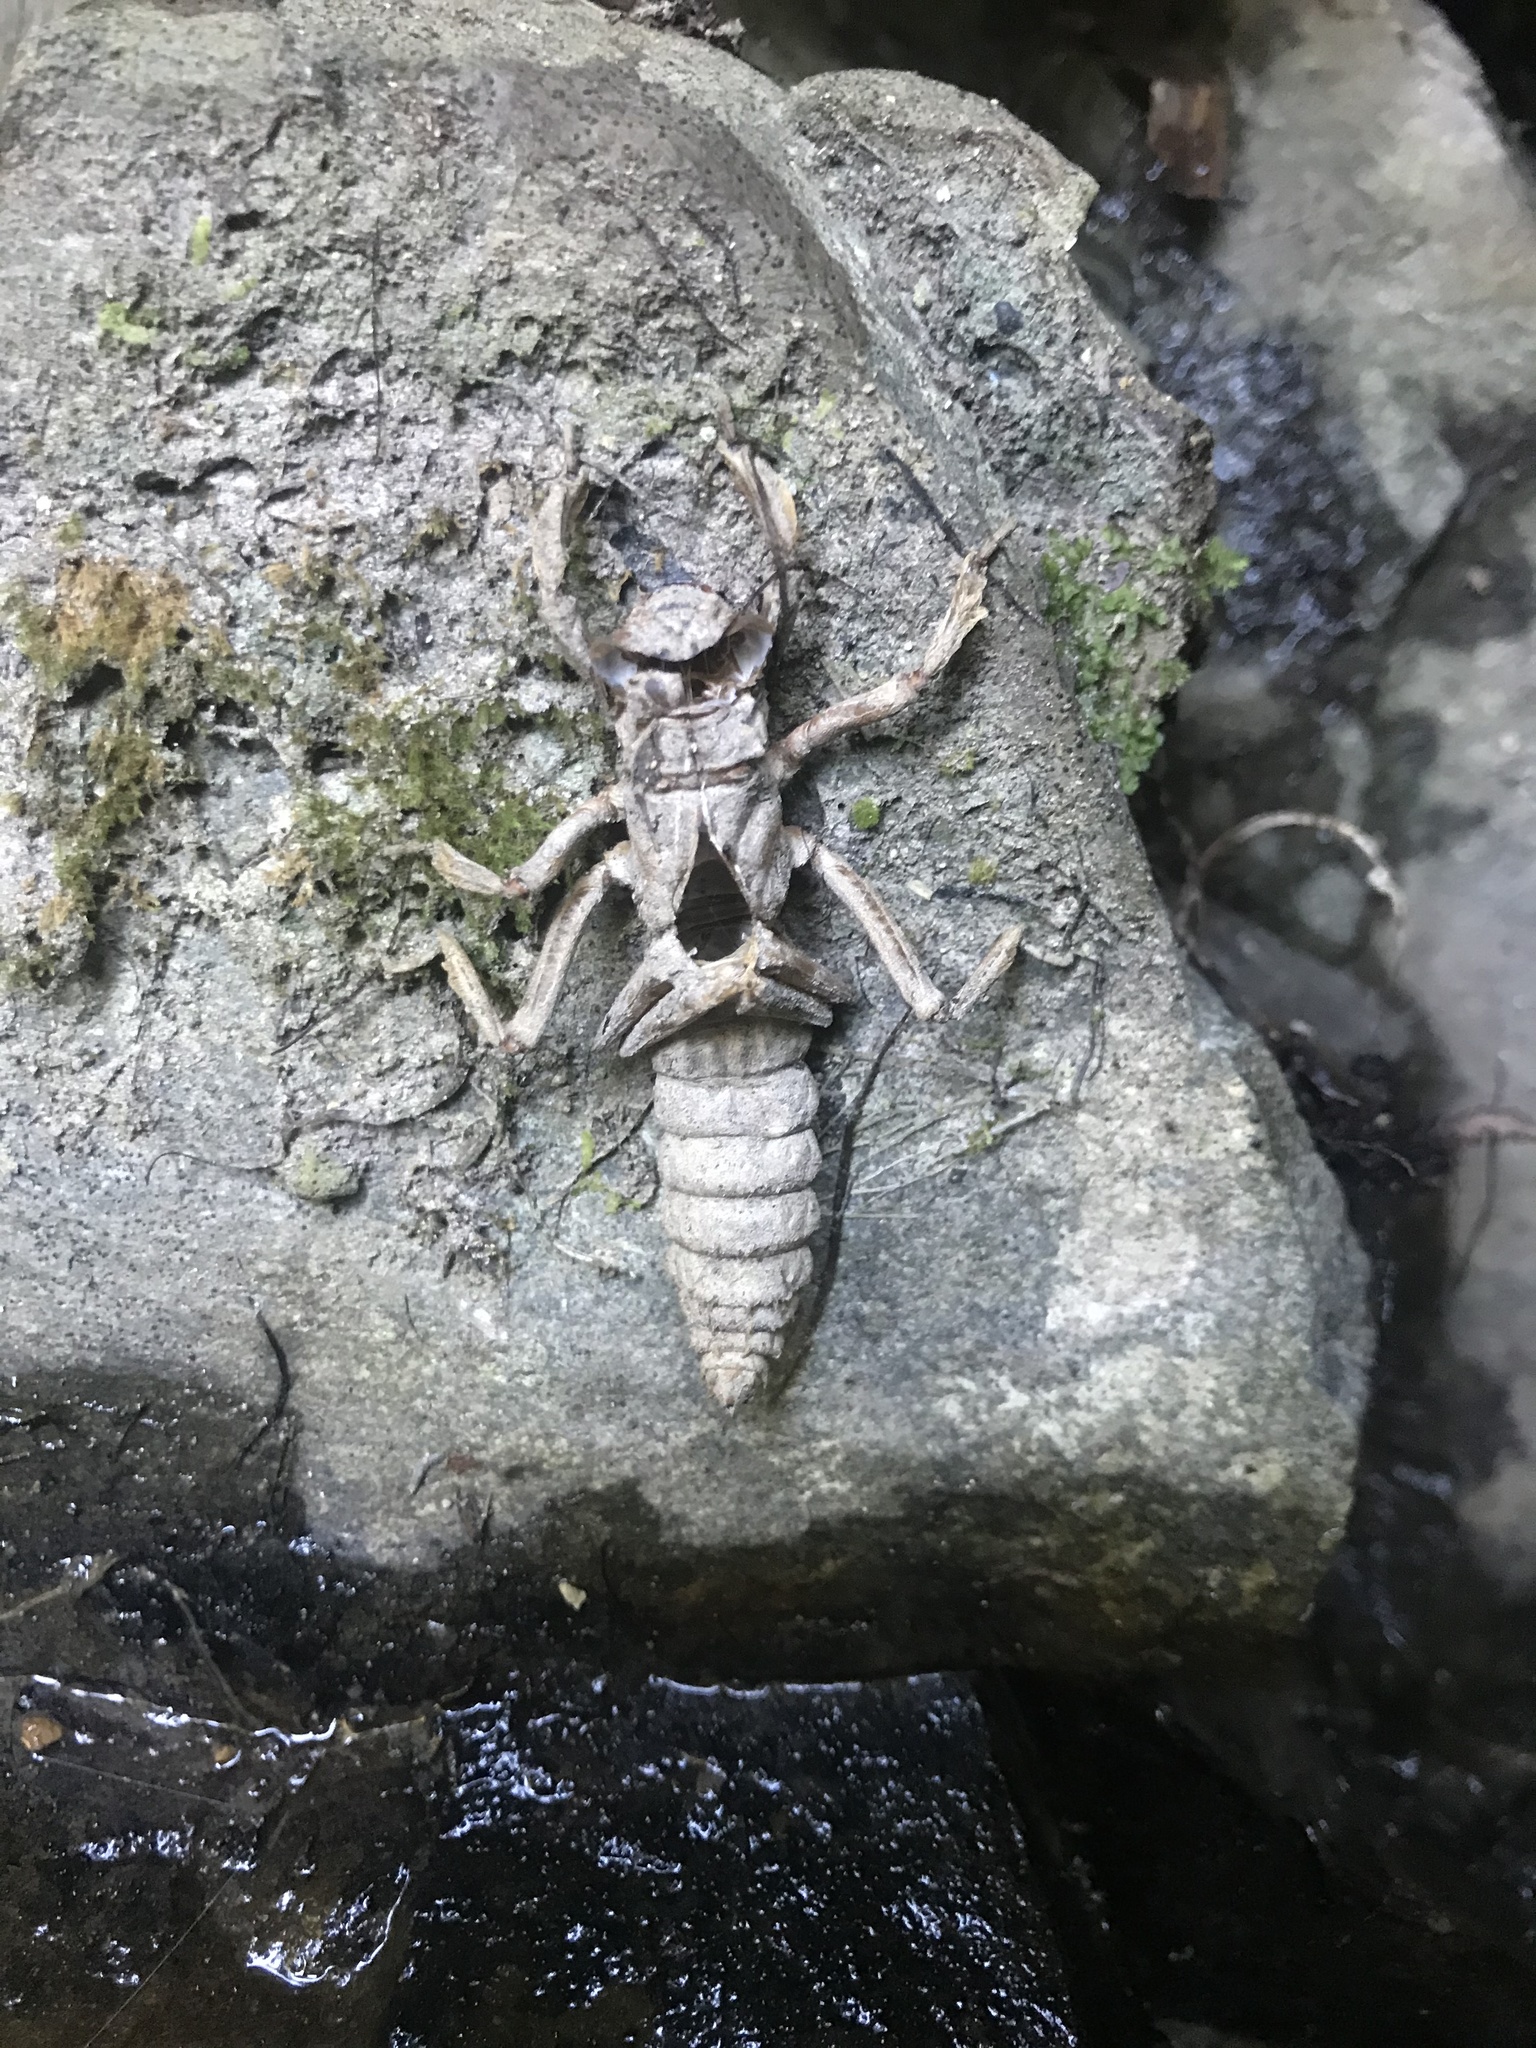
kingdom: Animalia
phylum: Arthropoda
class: Insecta
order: Odonata
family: Petaluridae
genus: Uropetala
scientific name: Uropetala carovei
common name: Bush giant dragonfly
